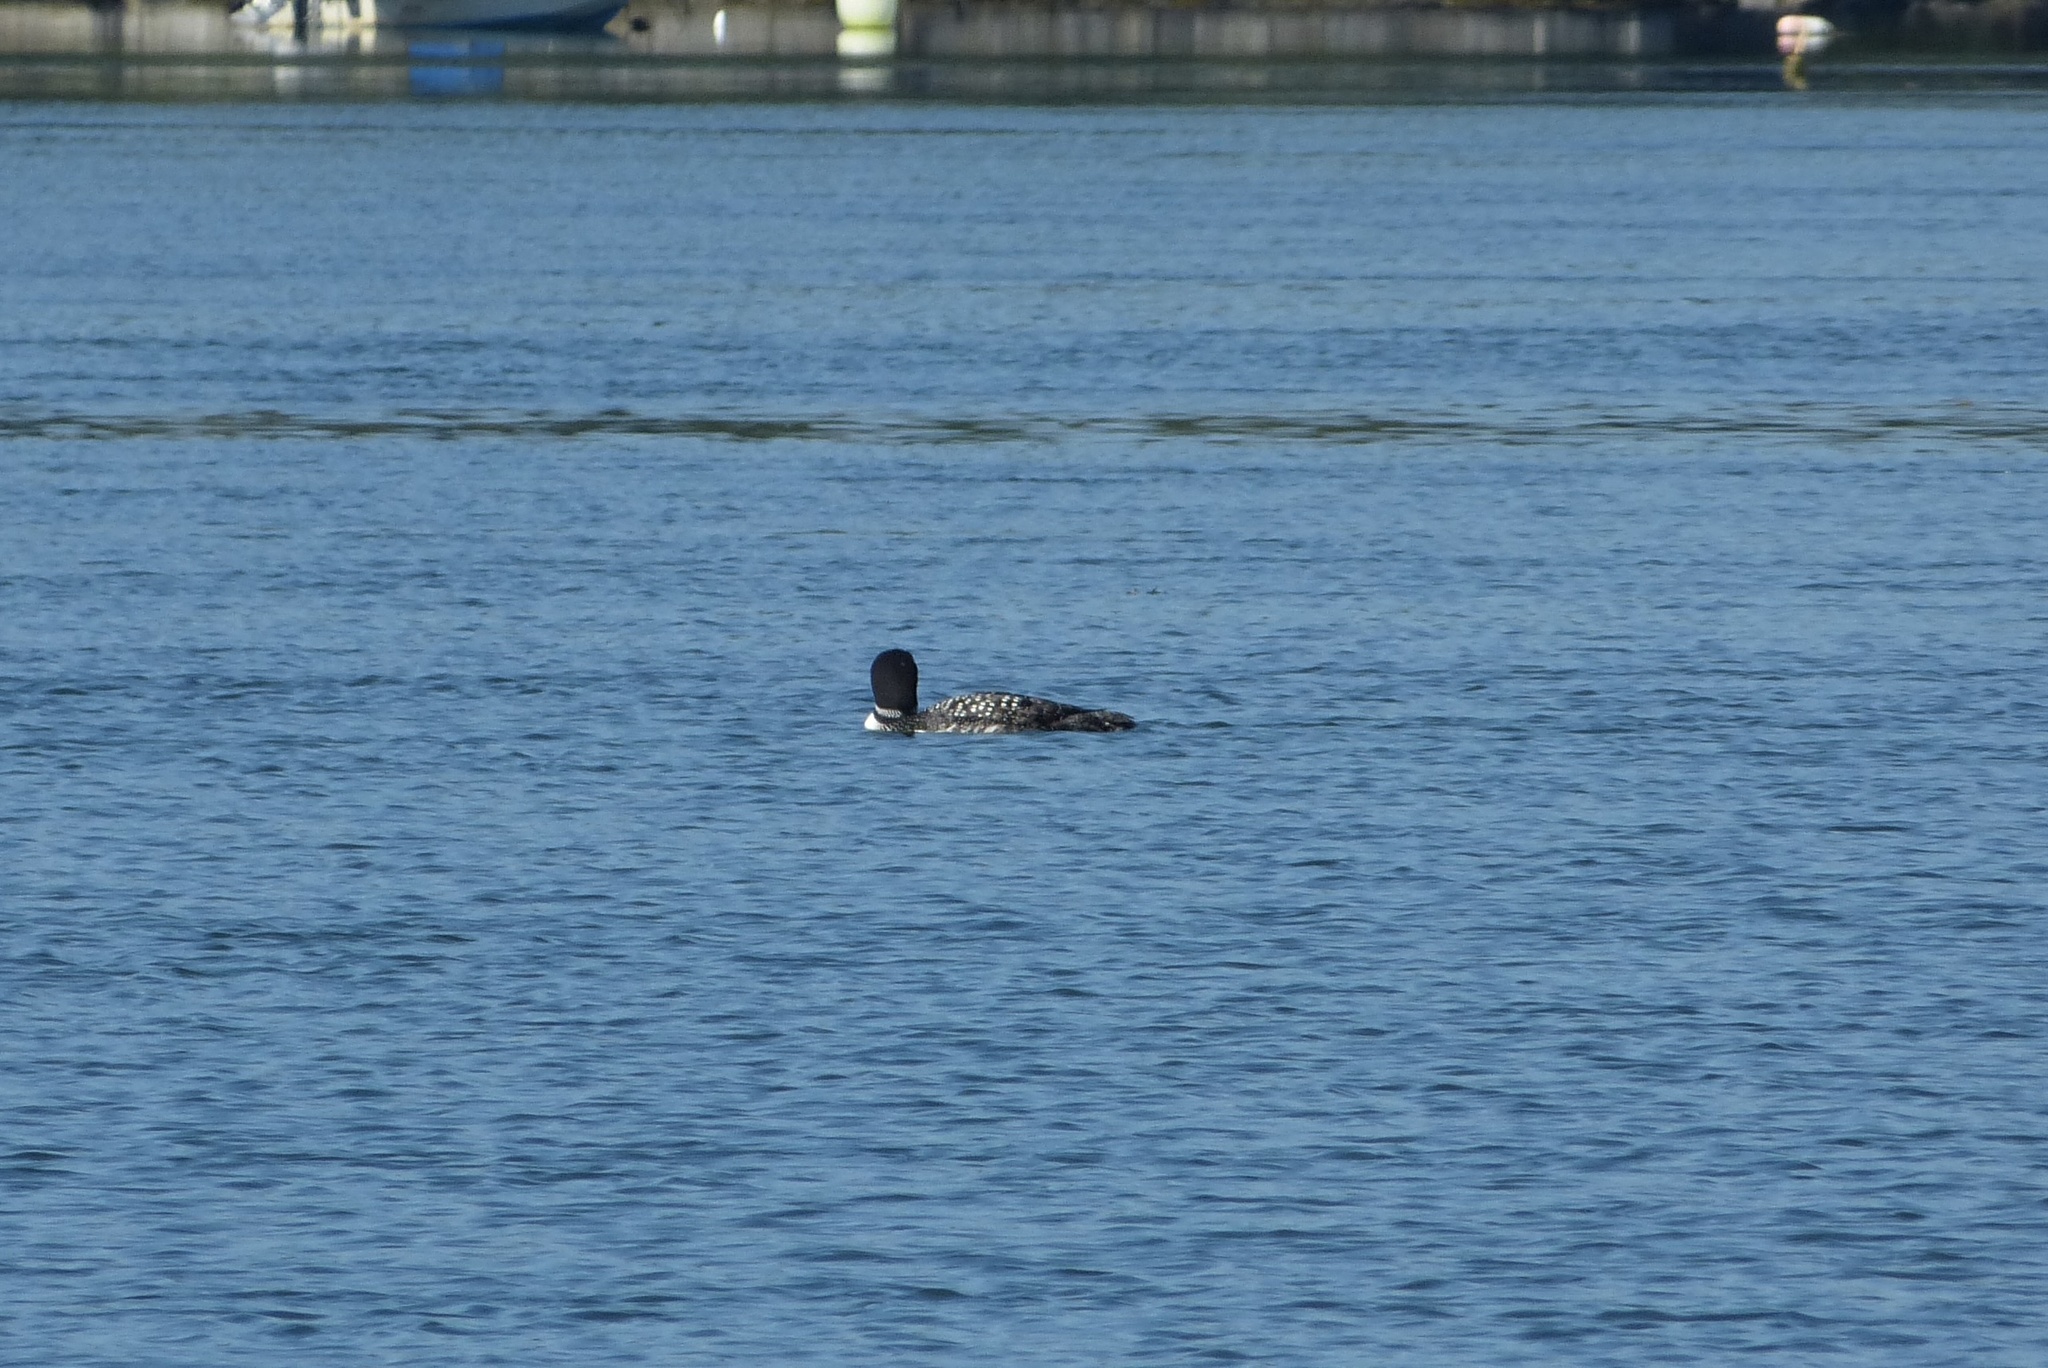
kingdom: Animalia
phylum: Chordata
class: Aves
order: Gaviiformes
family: Gaviidae
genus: Gavia
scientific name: Gavia immer
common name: Common loon
